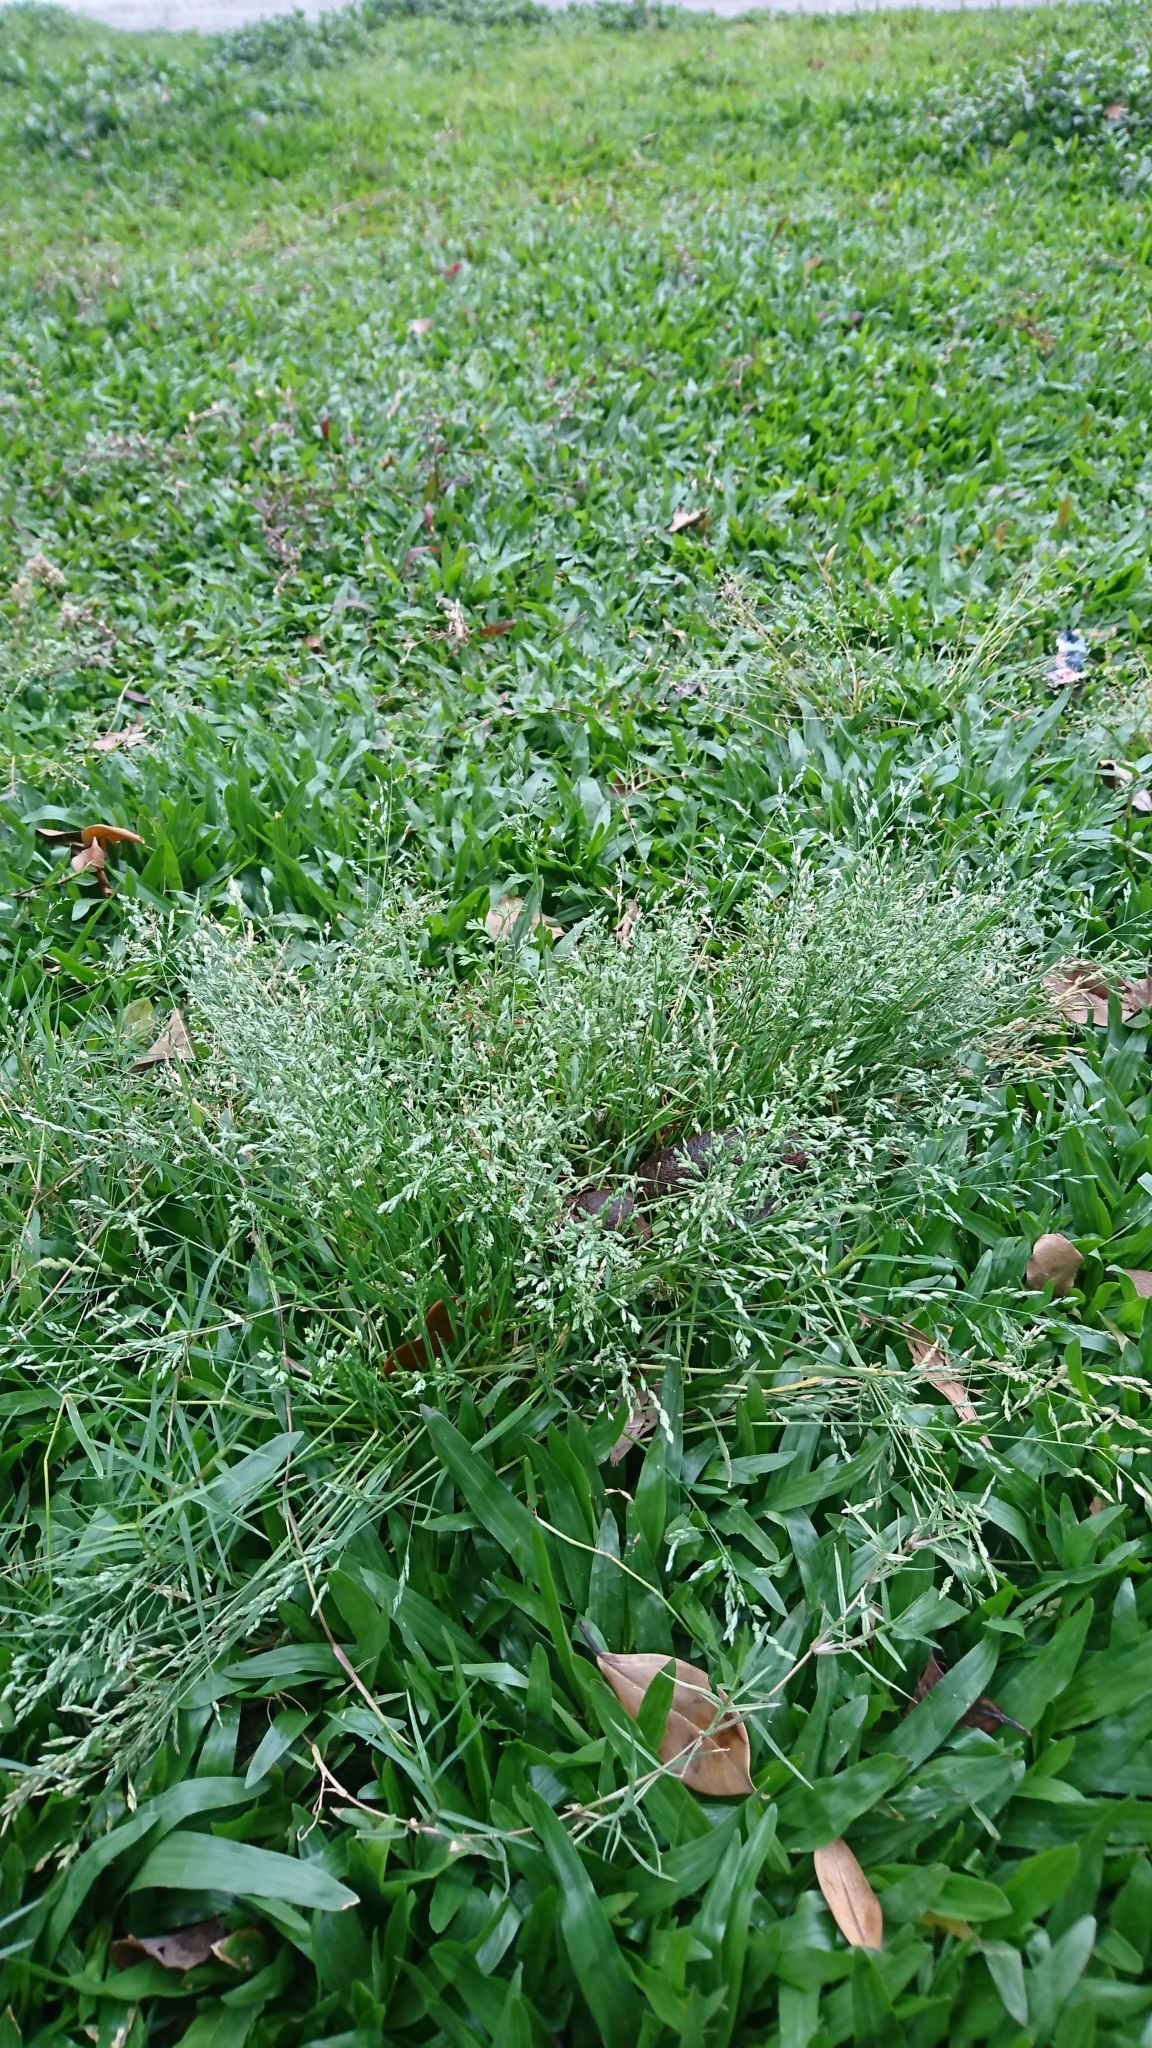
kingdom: Plantae
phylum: Tracheophyta
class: Liliopsida
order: Poales
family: Poaceae
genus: Poa
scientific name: Poa annua
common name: Annual bluegrass
